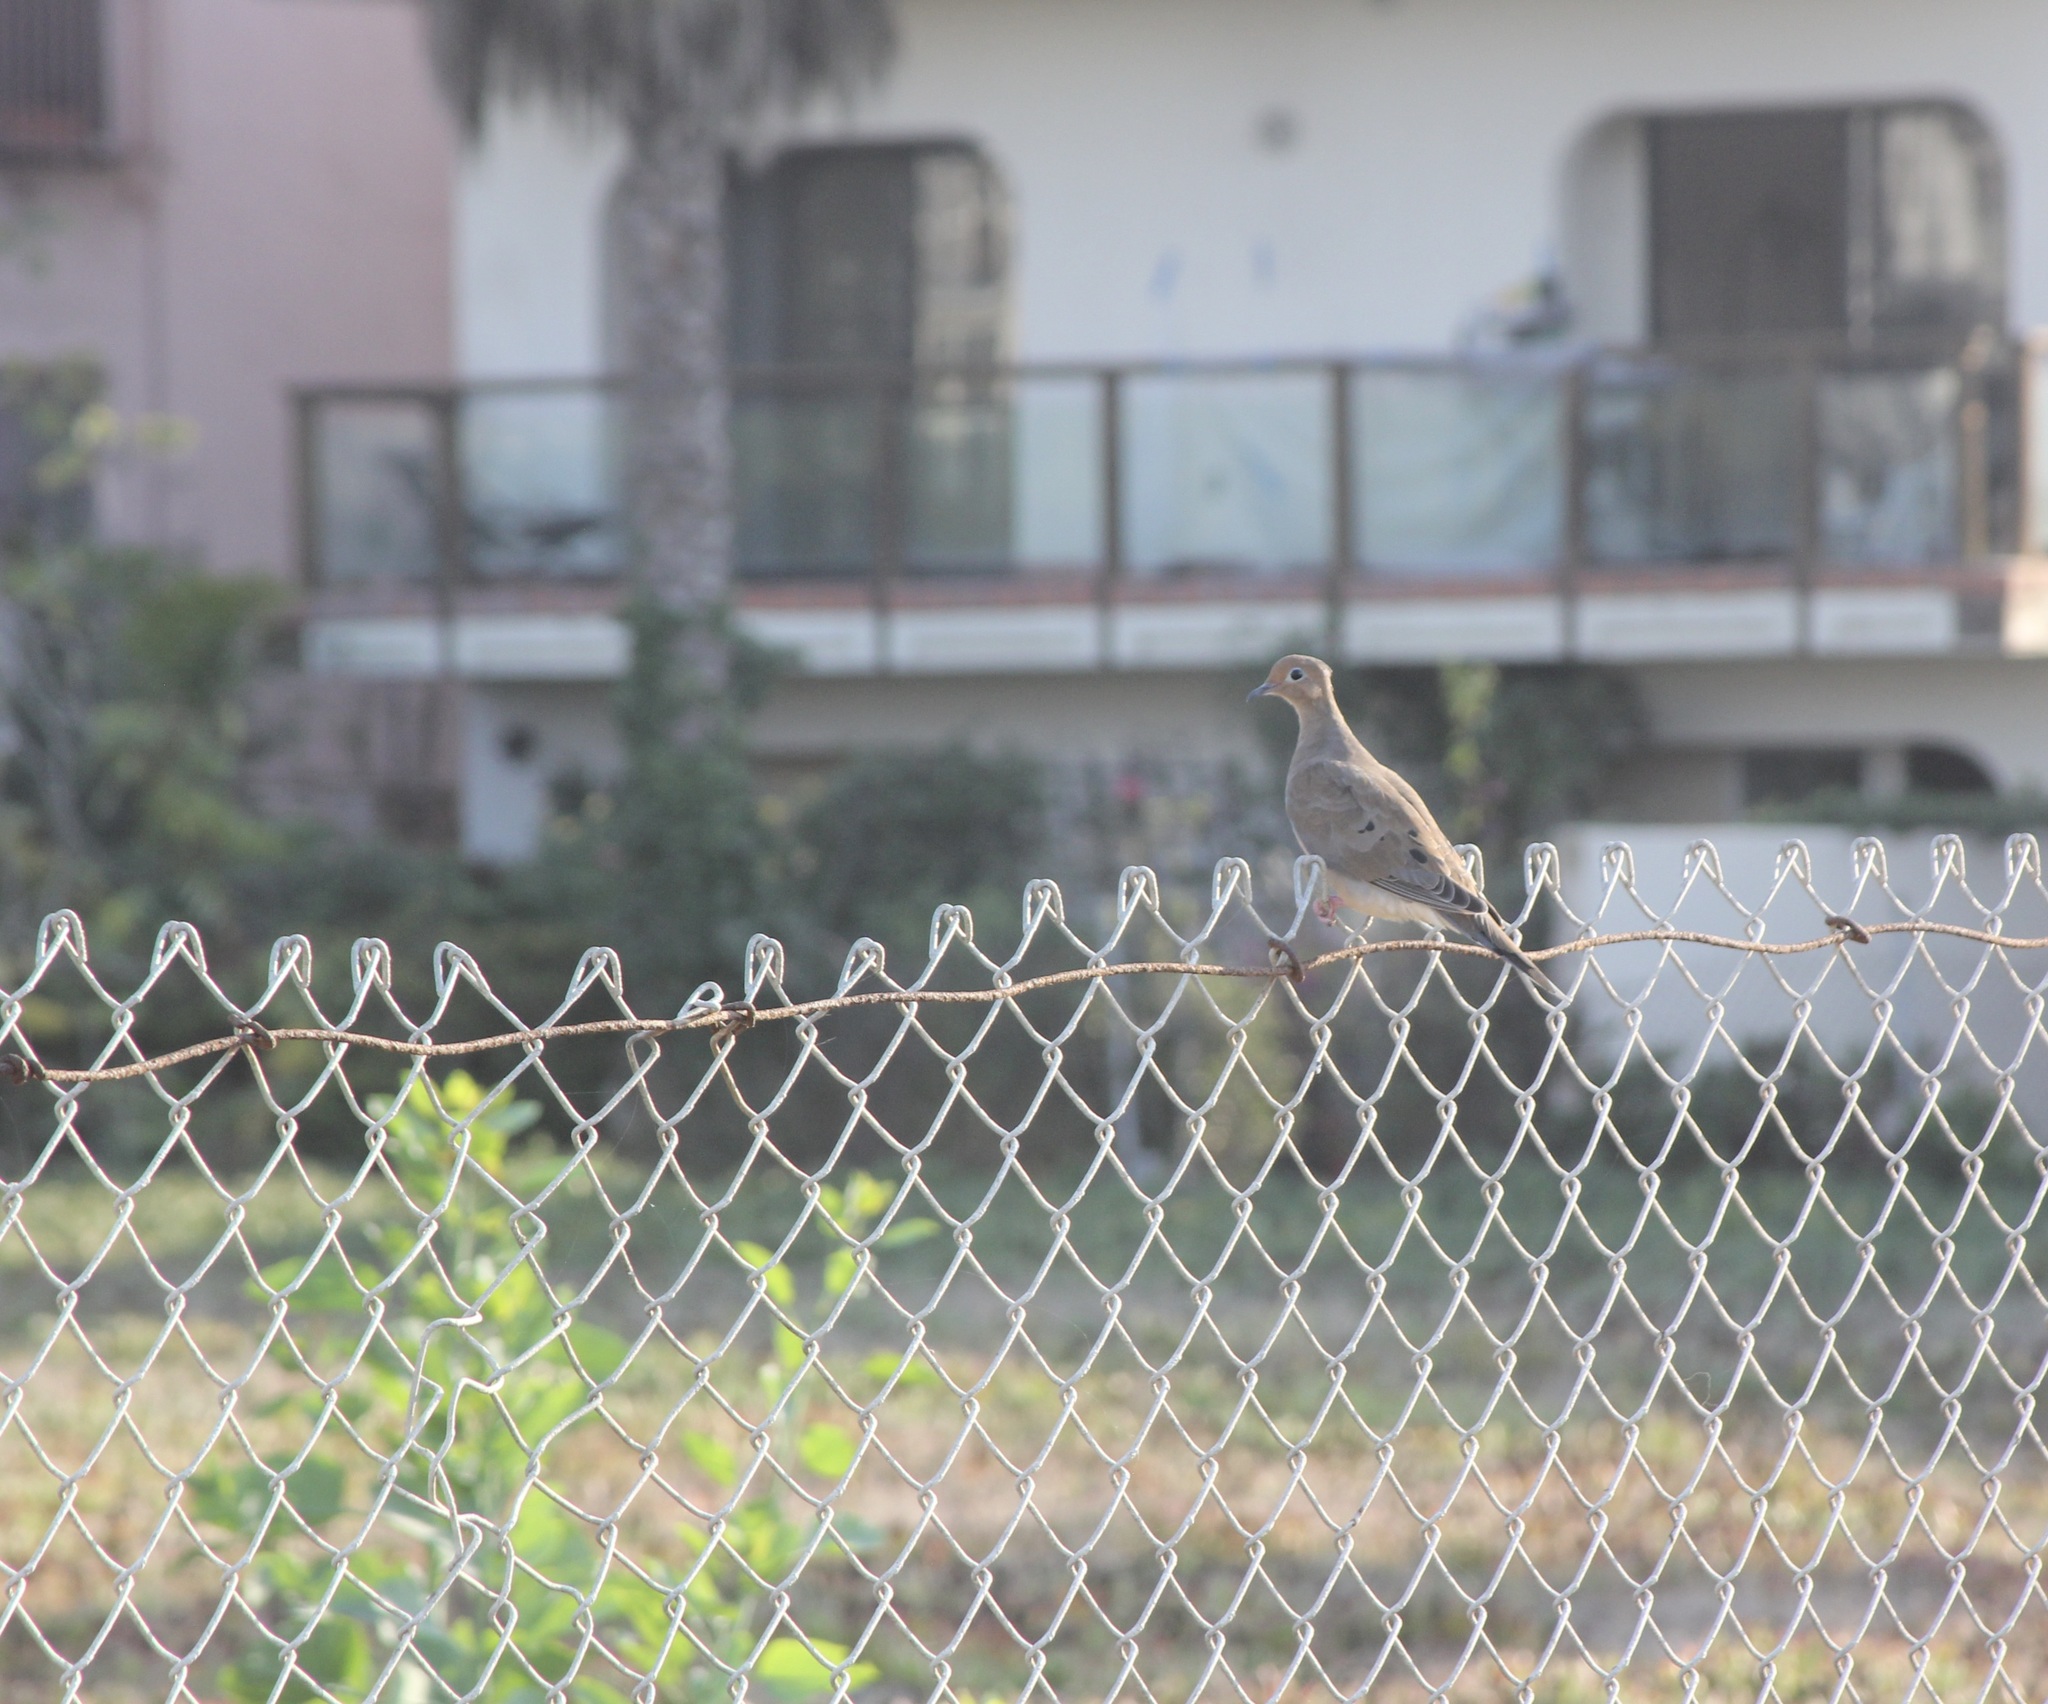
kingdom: Animalia
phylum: Chordata
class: Aves
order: Columbiformes
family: Columbidae
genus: Zenaida
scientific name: Zenaida macroura
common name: Mourning dove
